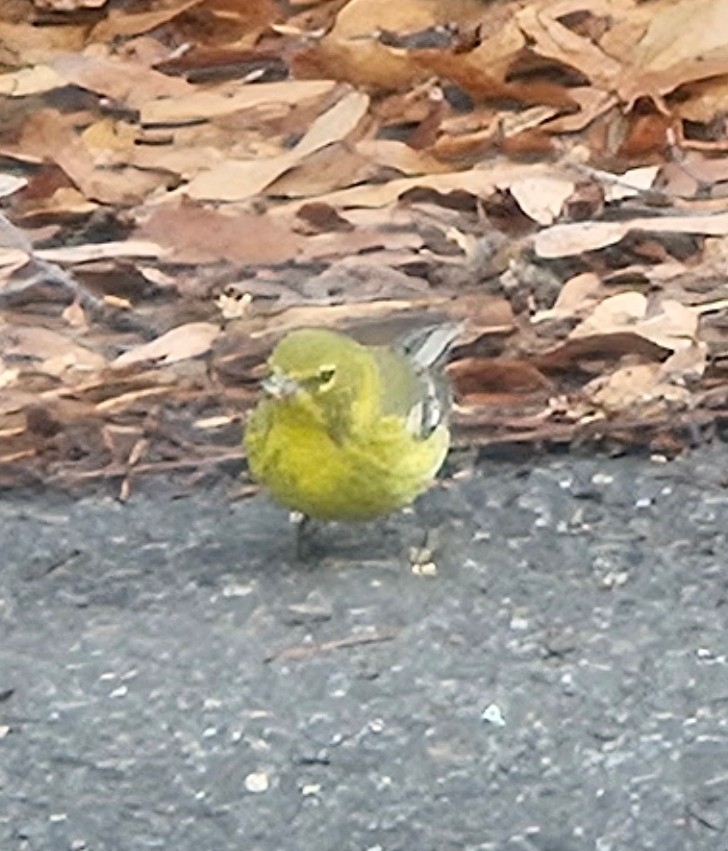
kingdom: Animalia
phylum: Chordata
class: Aves
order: Passeriformes
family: Parulidae
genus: Setophaga
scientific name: Setophaga pinus
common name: Pine warbler
